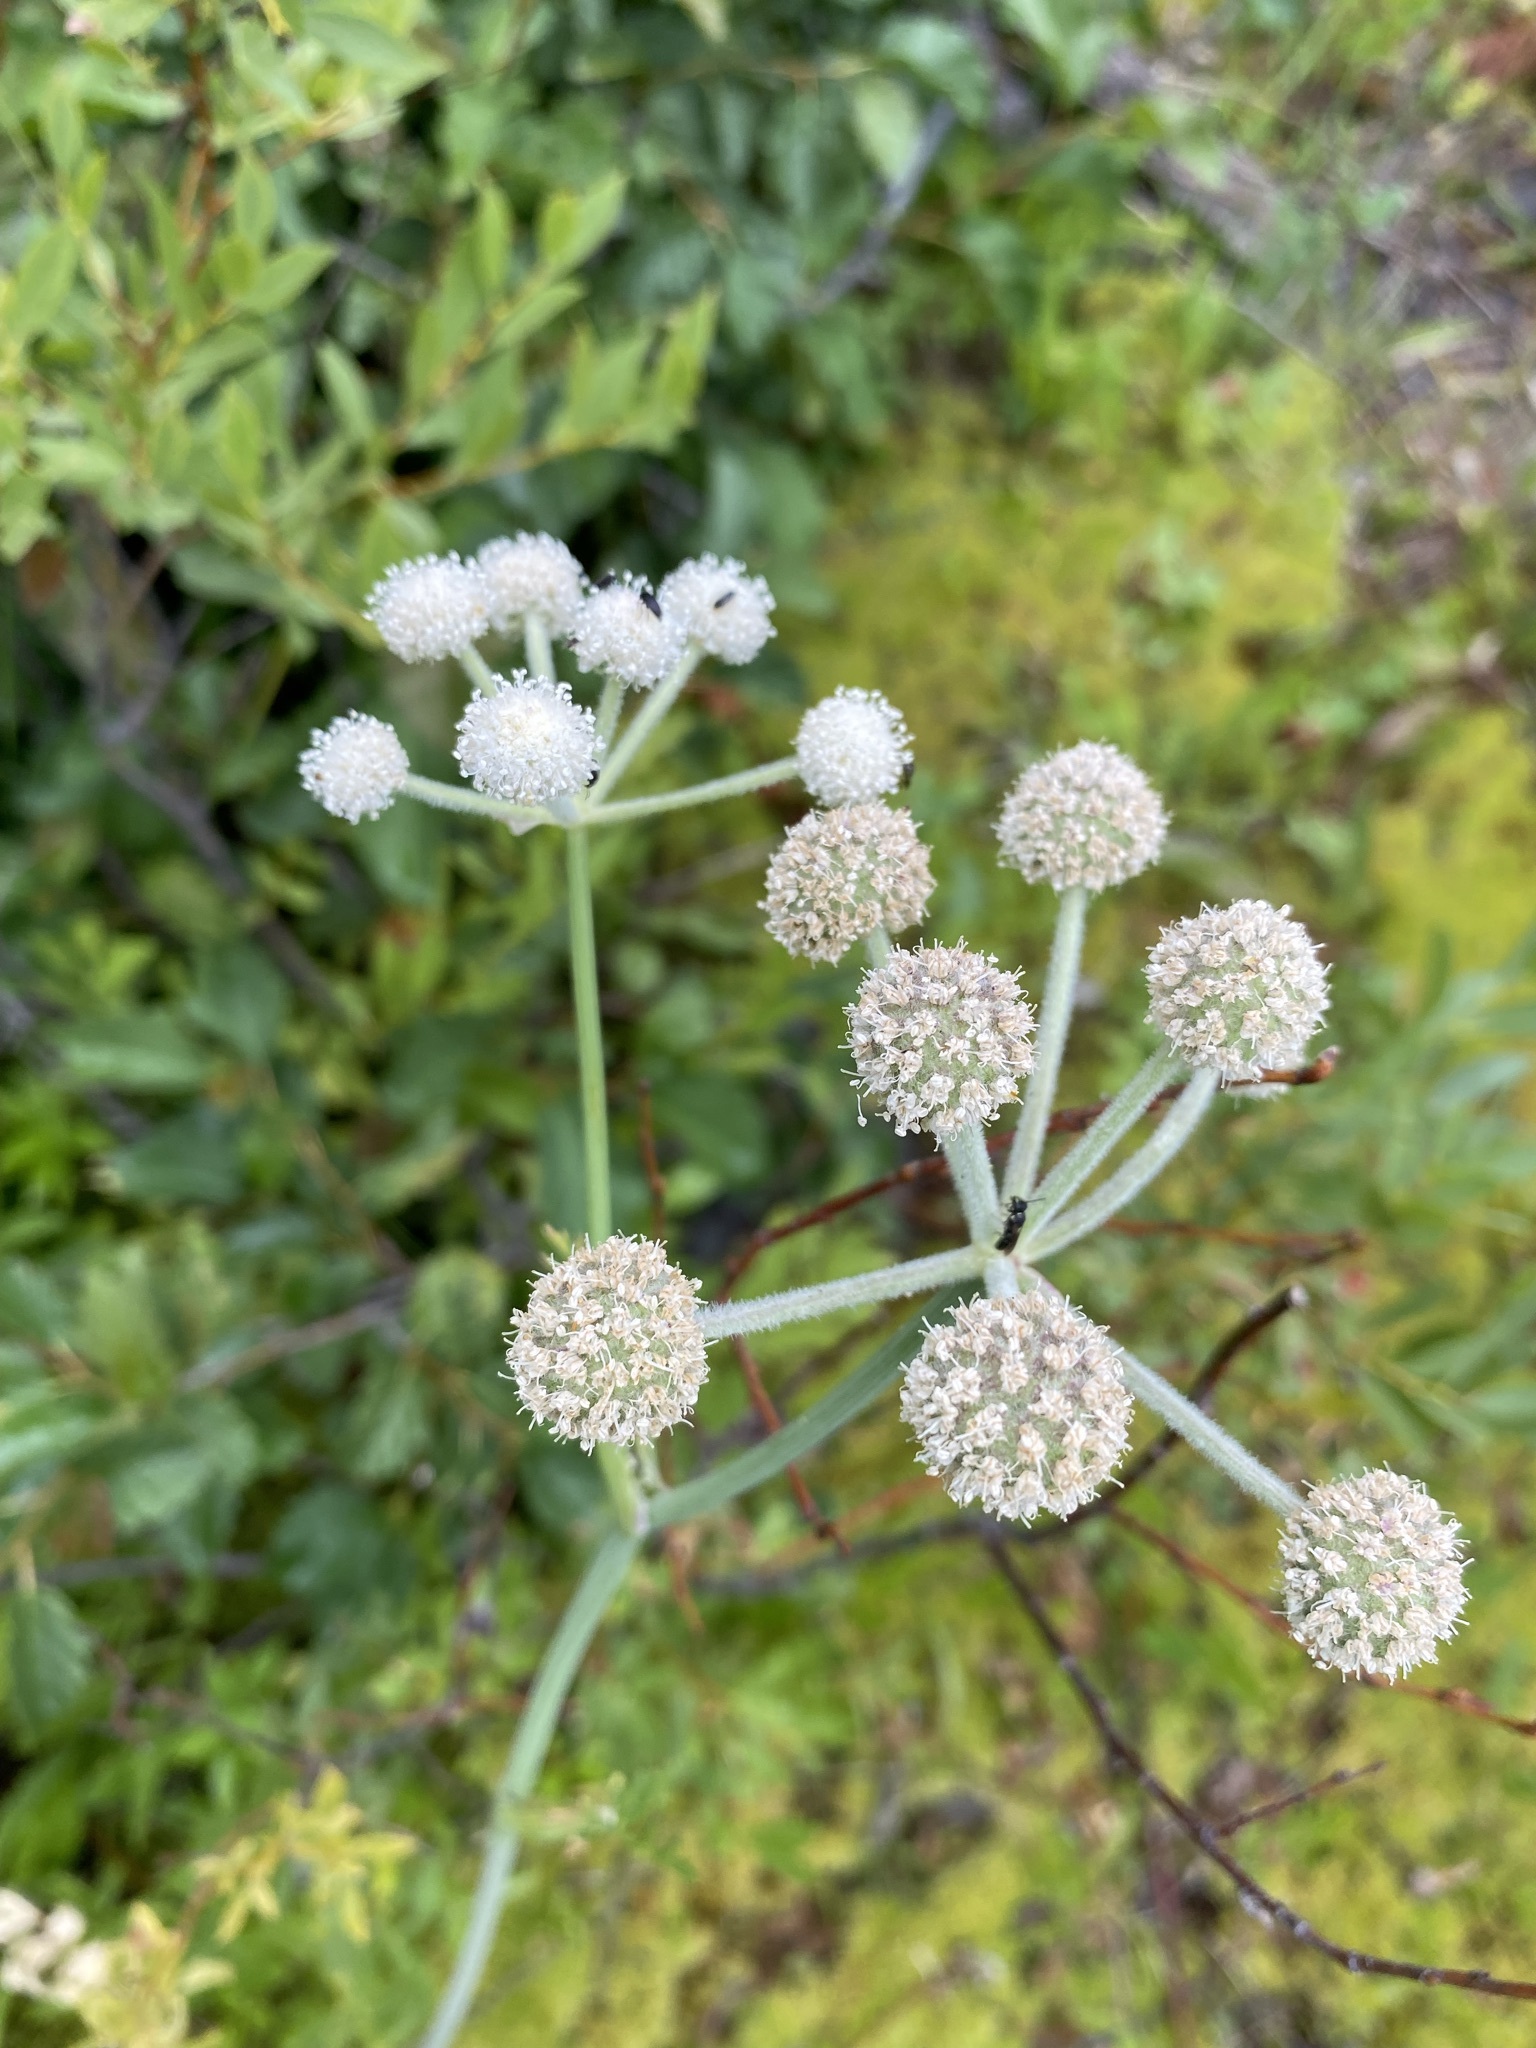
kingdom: Plantae
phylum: Tracheophyta
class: Magnoliopsida
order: Apiales
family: Apiaceae
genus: Angelica
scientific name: Angelica capitellata
